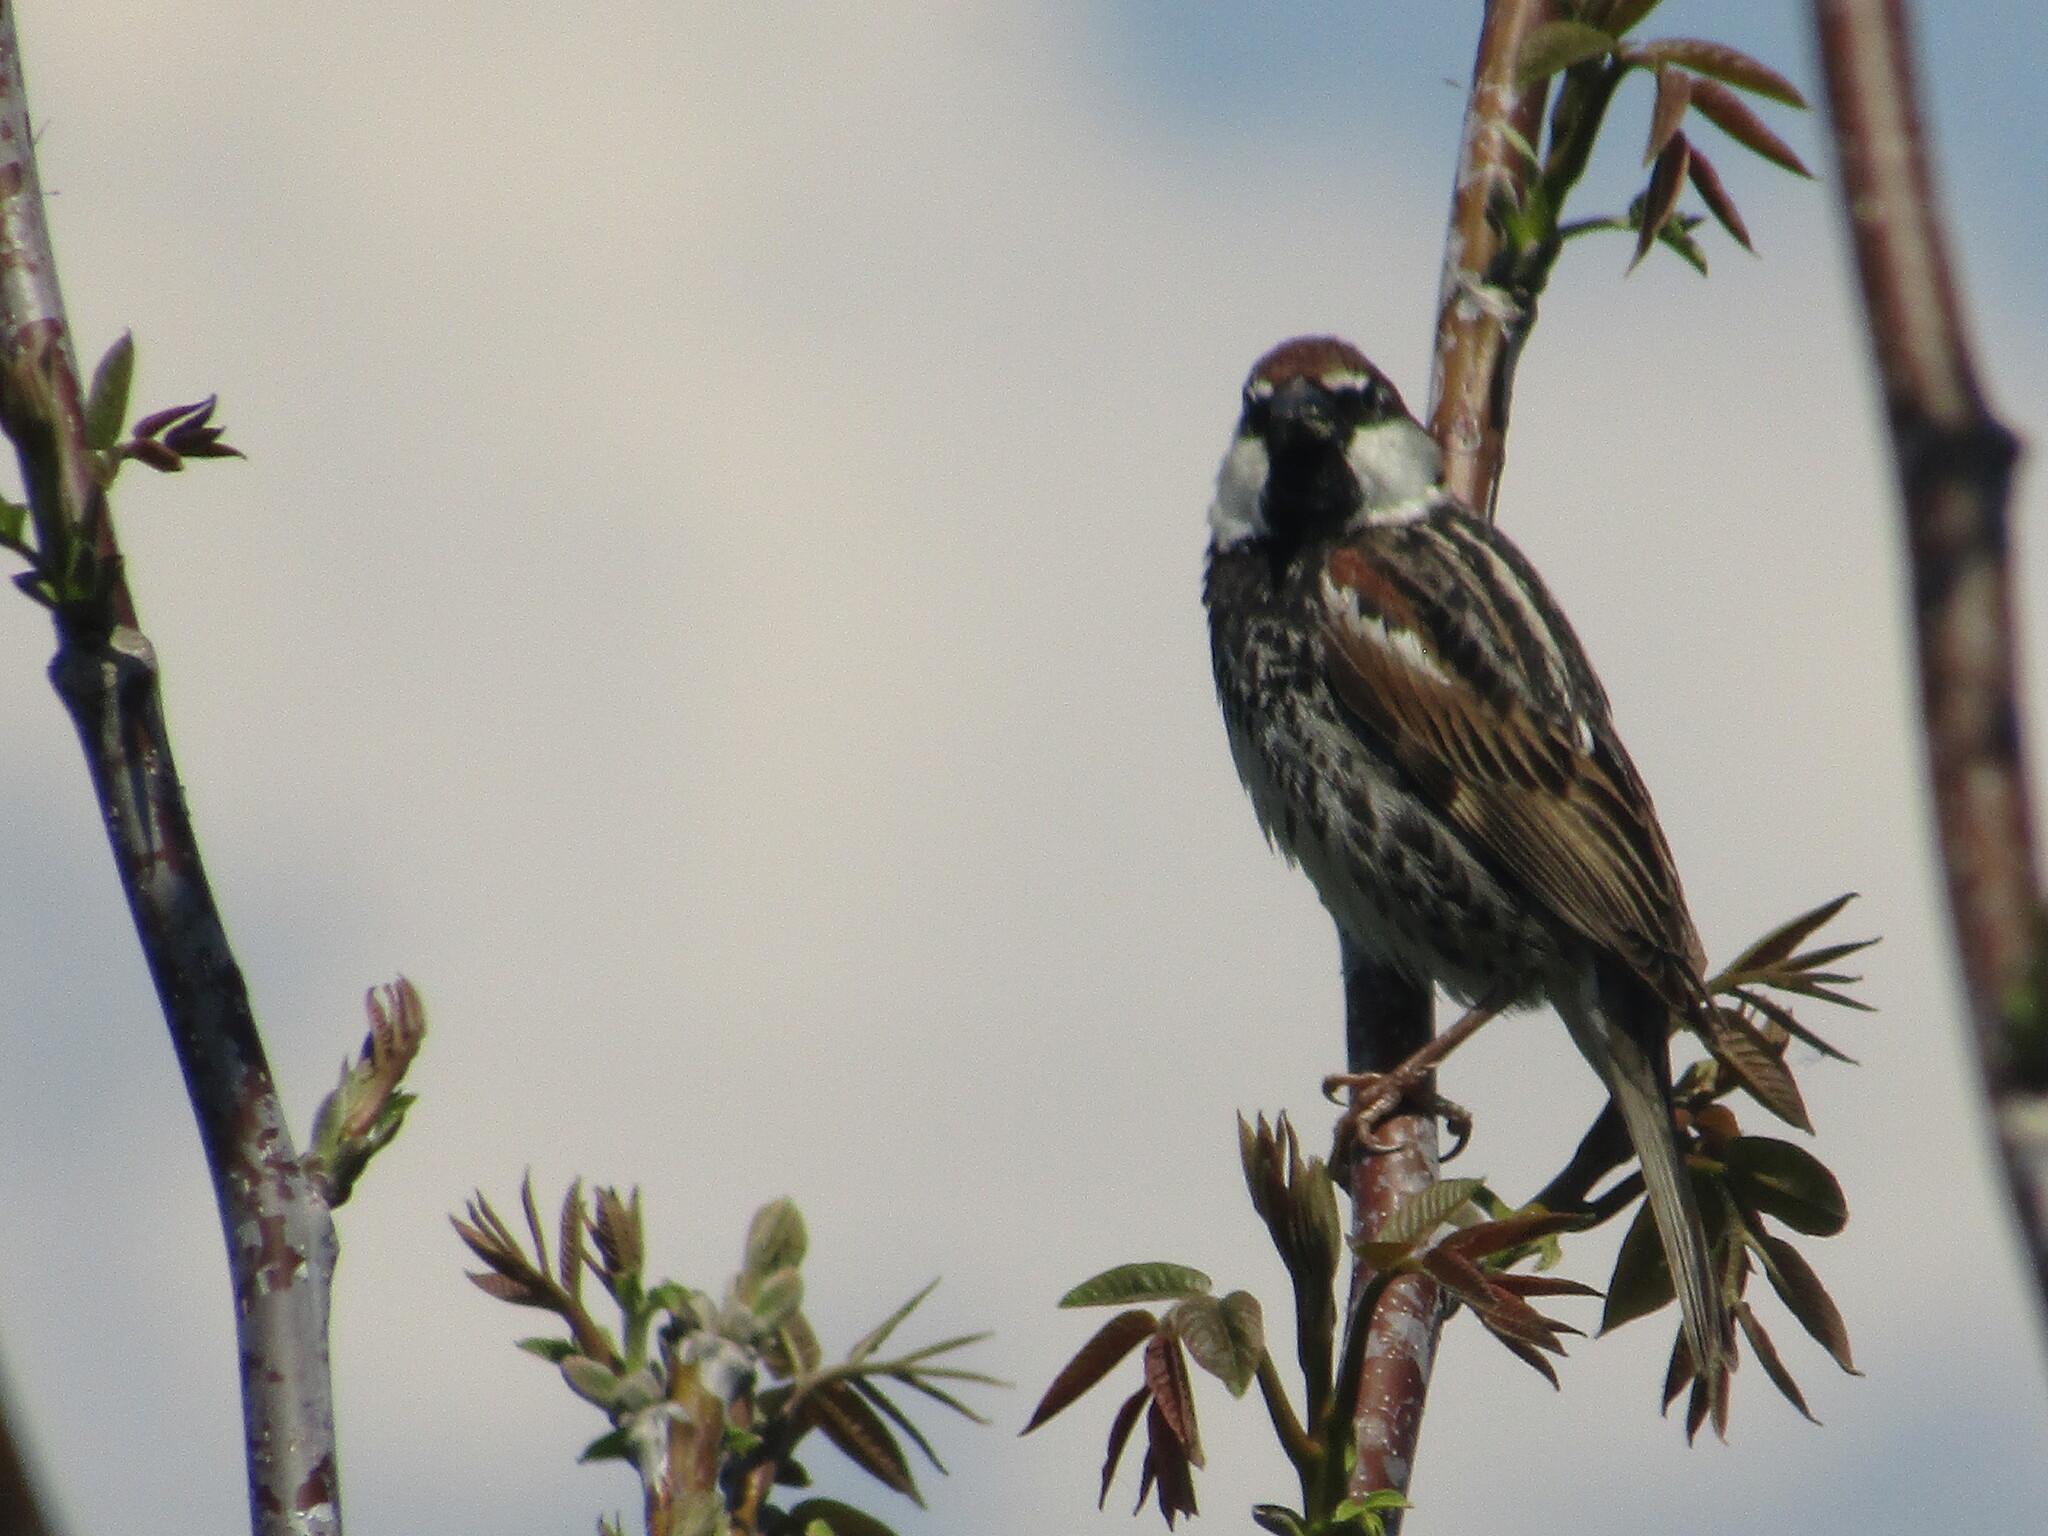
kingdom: Animalia
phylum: Chordata
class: Aves
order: Passeriformes
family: Passeridae
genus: Passer
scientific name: Passer hispaniolensis
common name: Spanish sparrow
